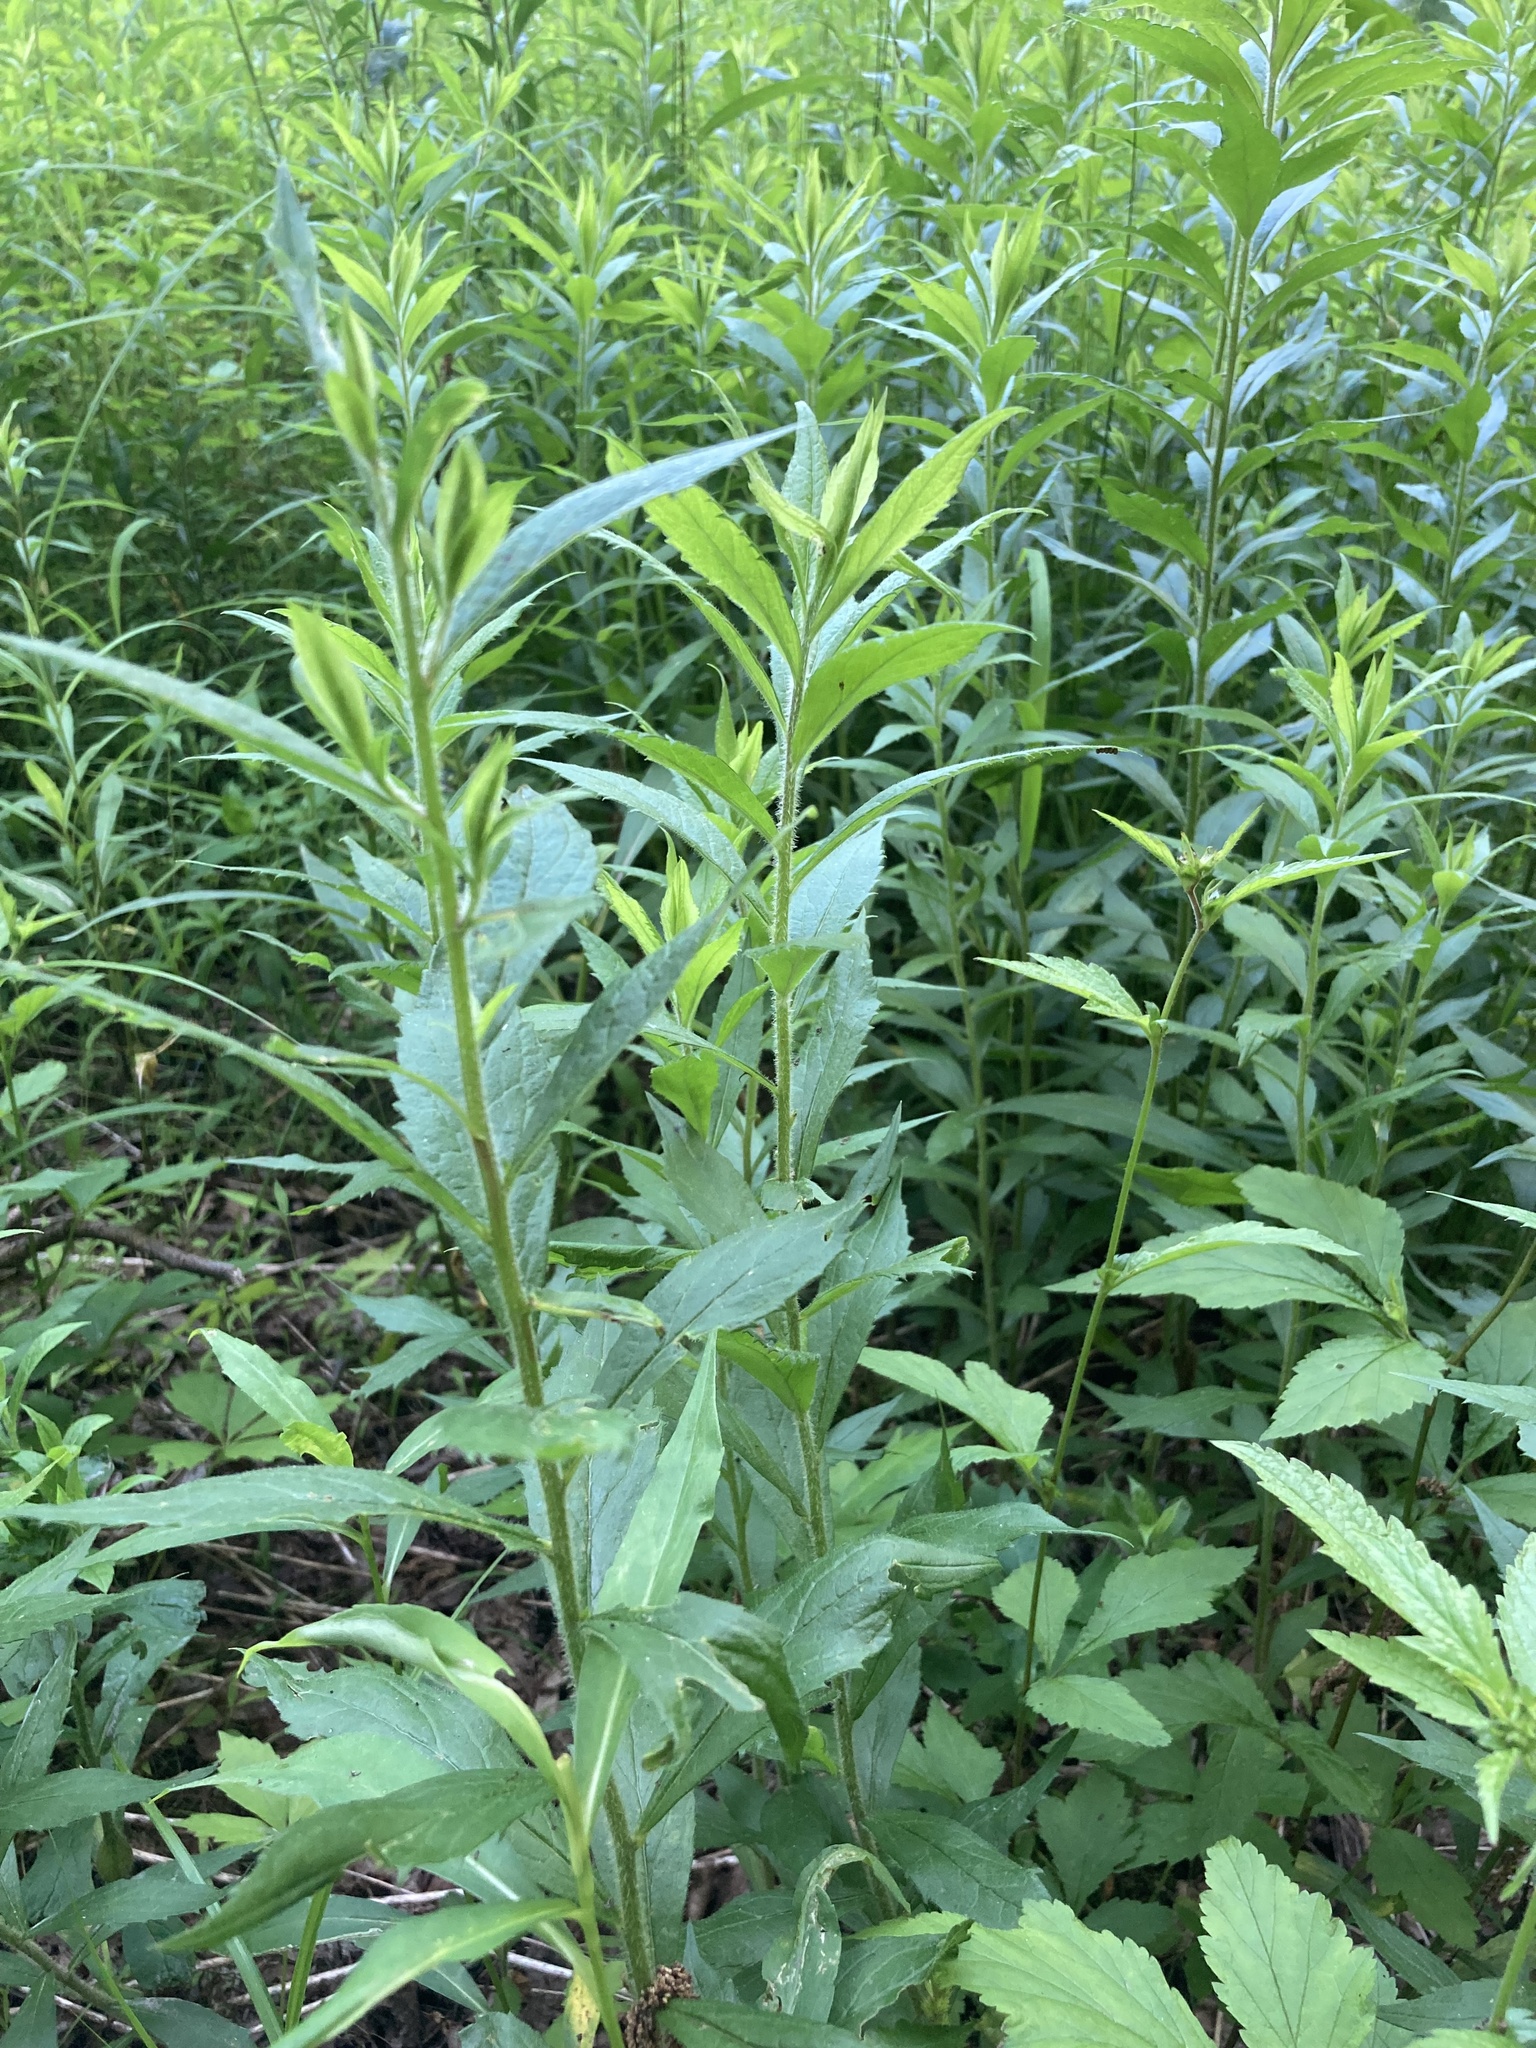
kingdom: Plantae
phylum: Tracheophyta
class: Magnoliopsida
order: Asterales
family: Asteraceae
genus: Solidago
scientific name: Solidago rugosa
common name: Rough-stemmed goldenrod
